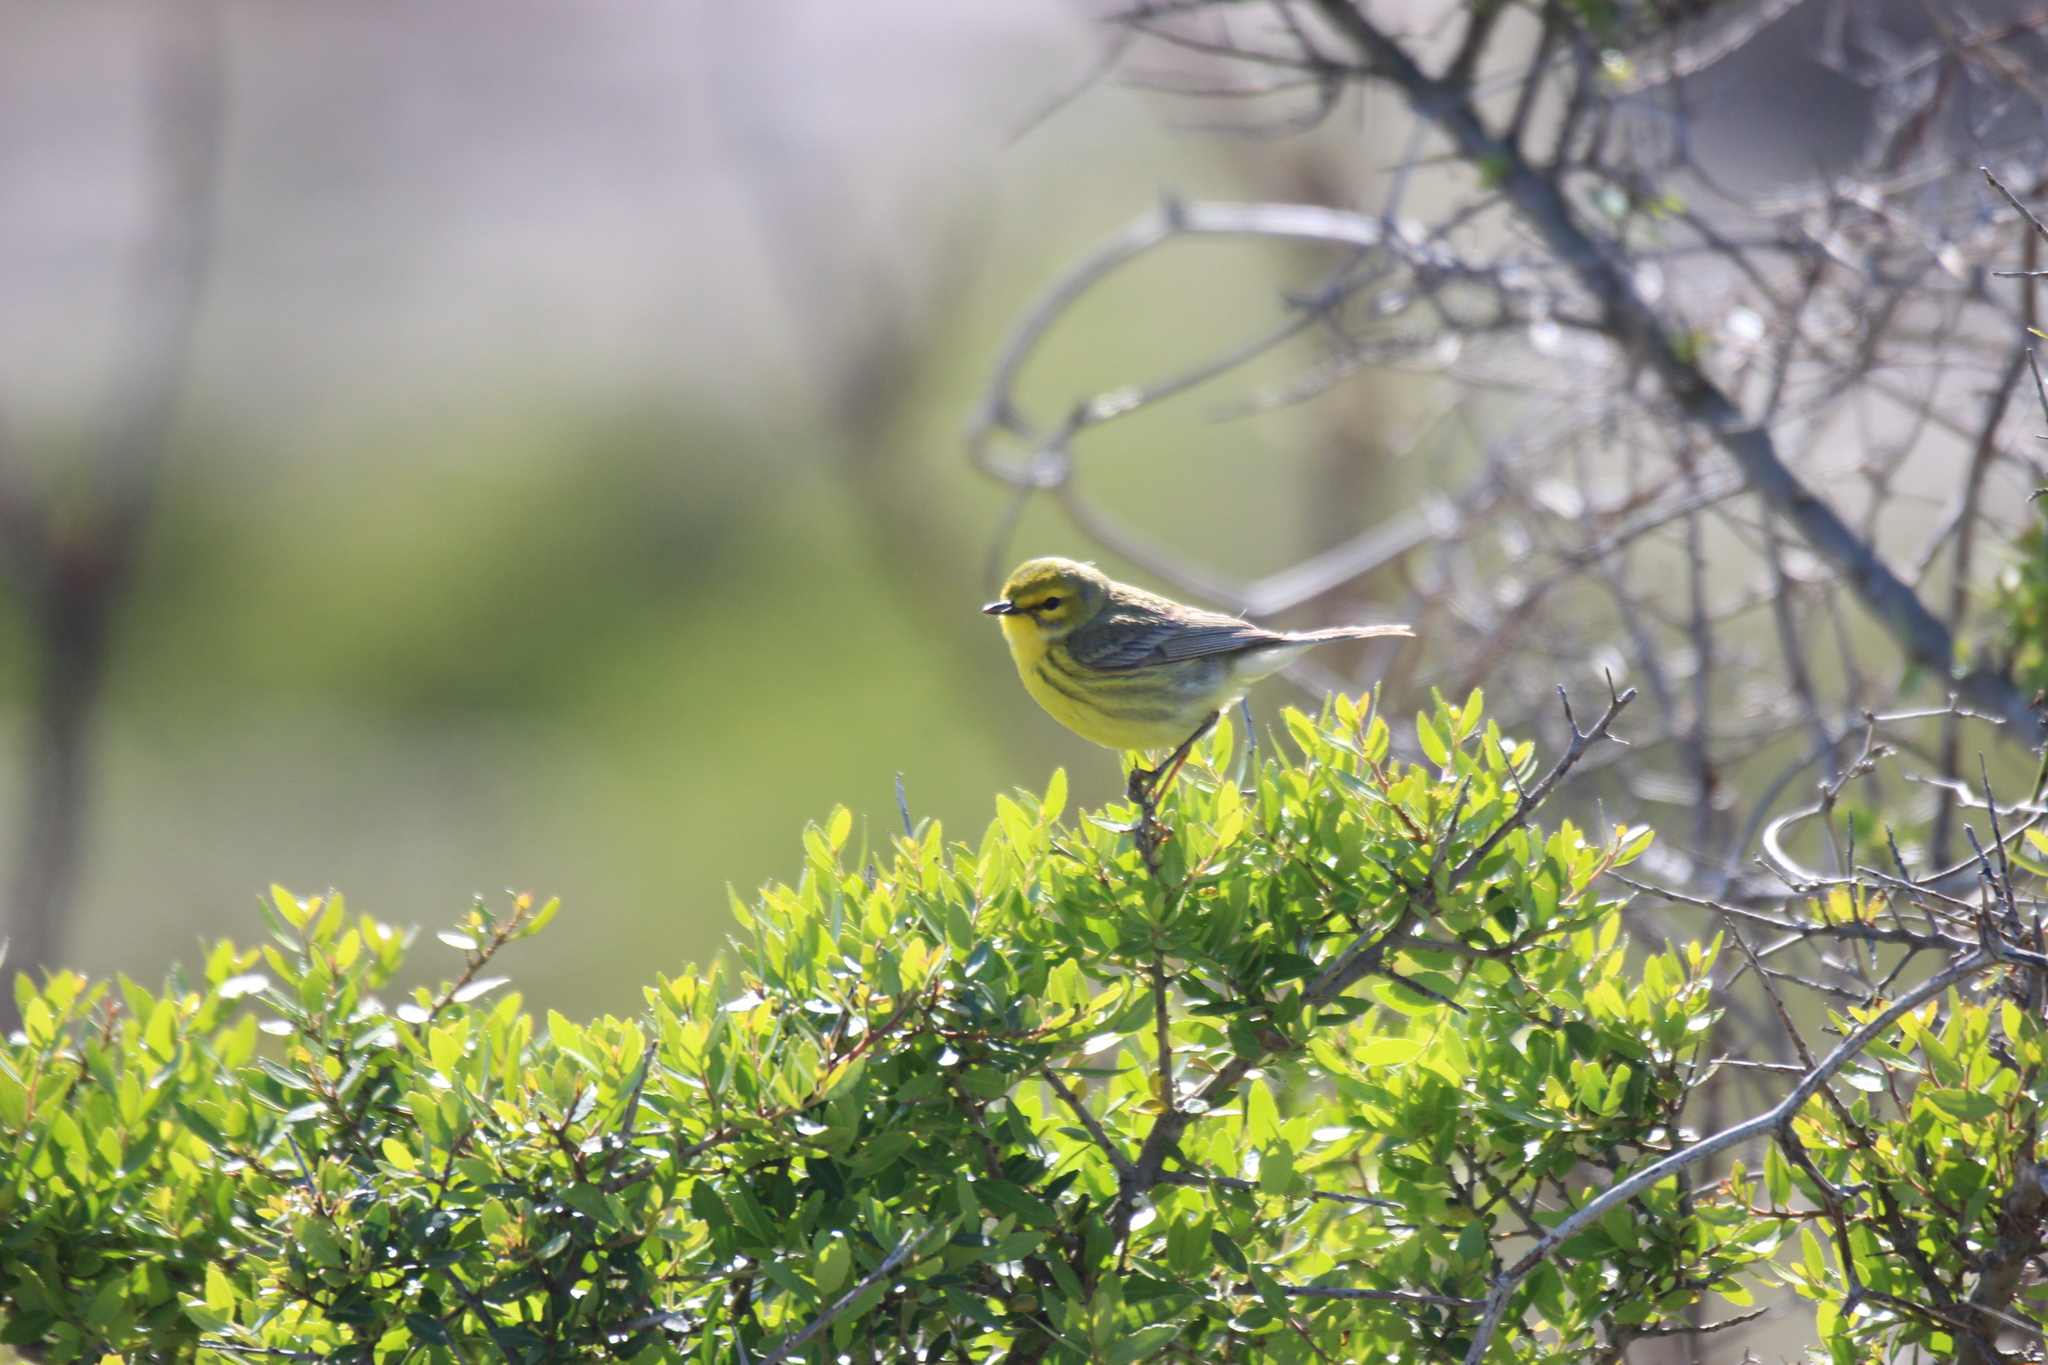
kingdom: Animalia
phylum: Chordata
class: Aves
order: Passeriformes
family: Parulidae
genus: Setophaga
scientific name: Setophaga discolor
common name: Prairie warbler
